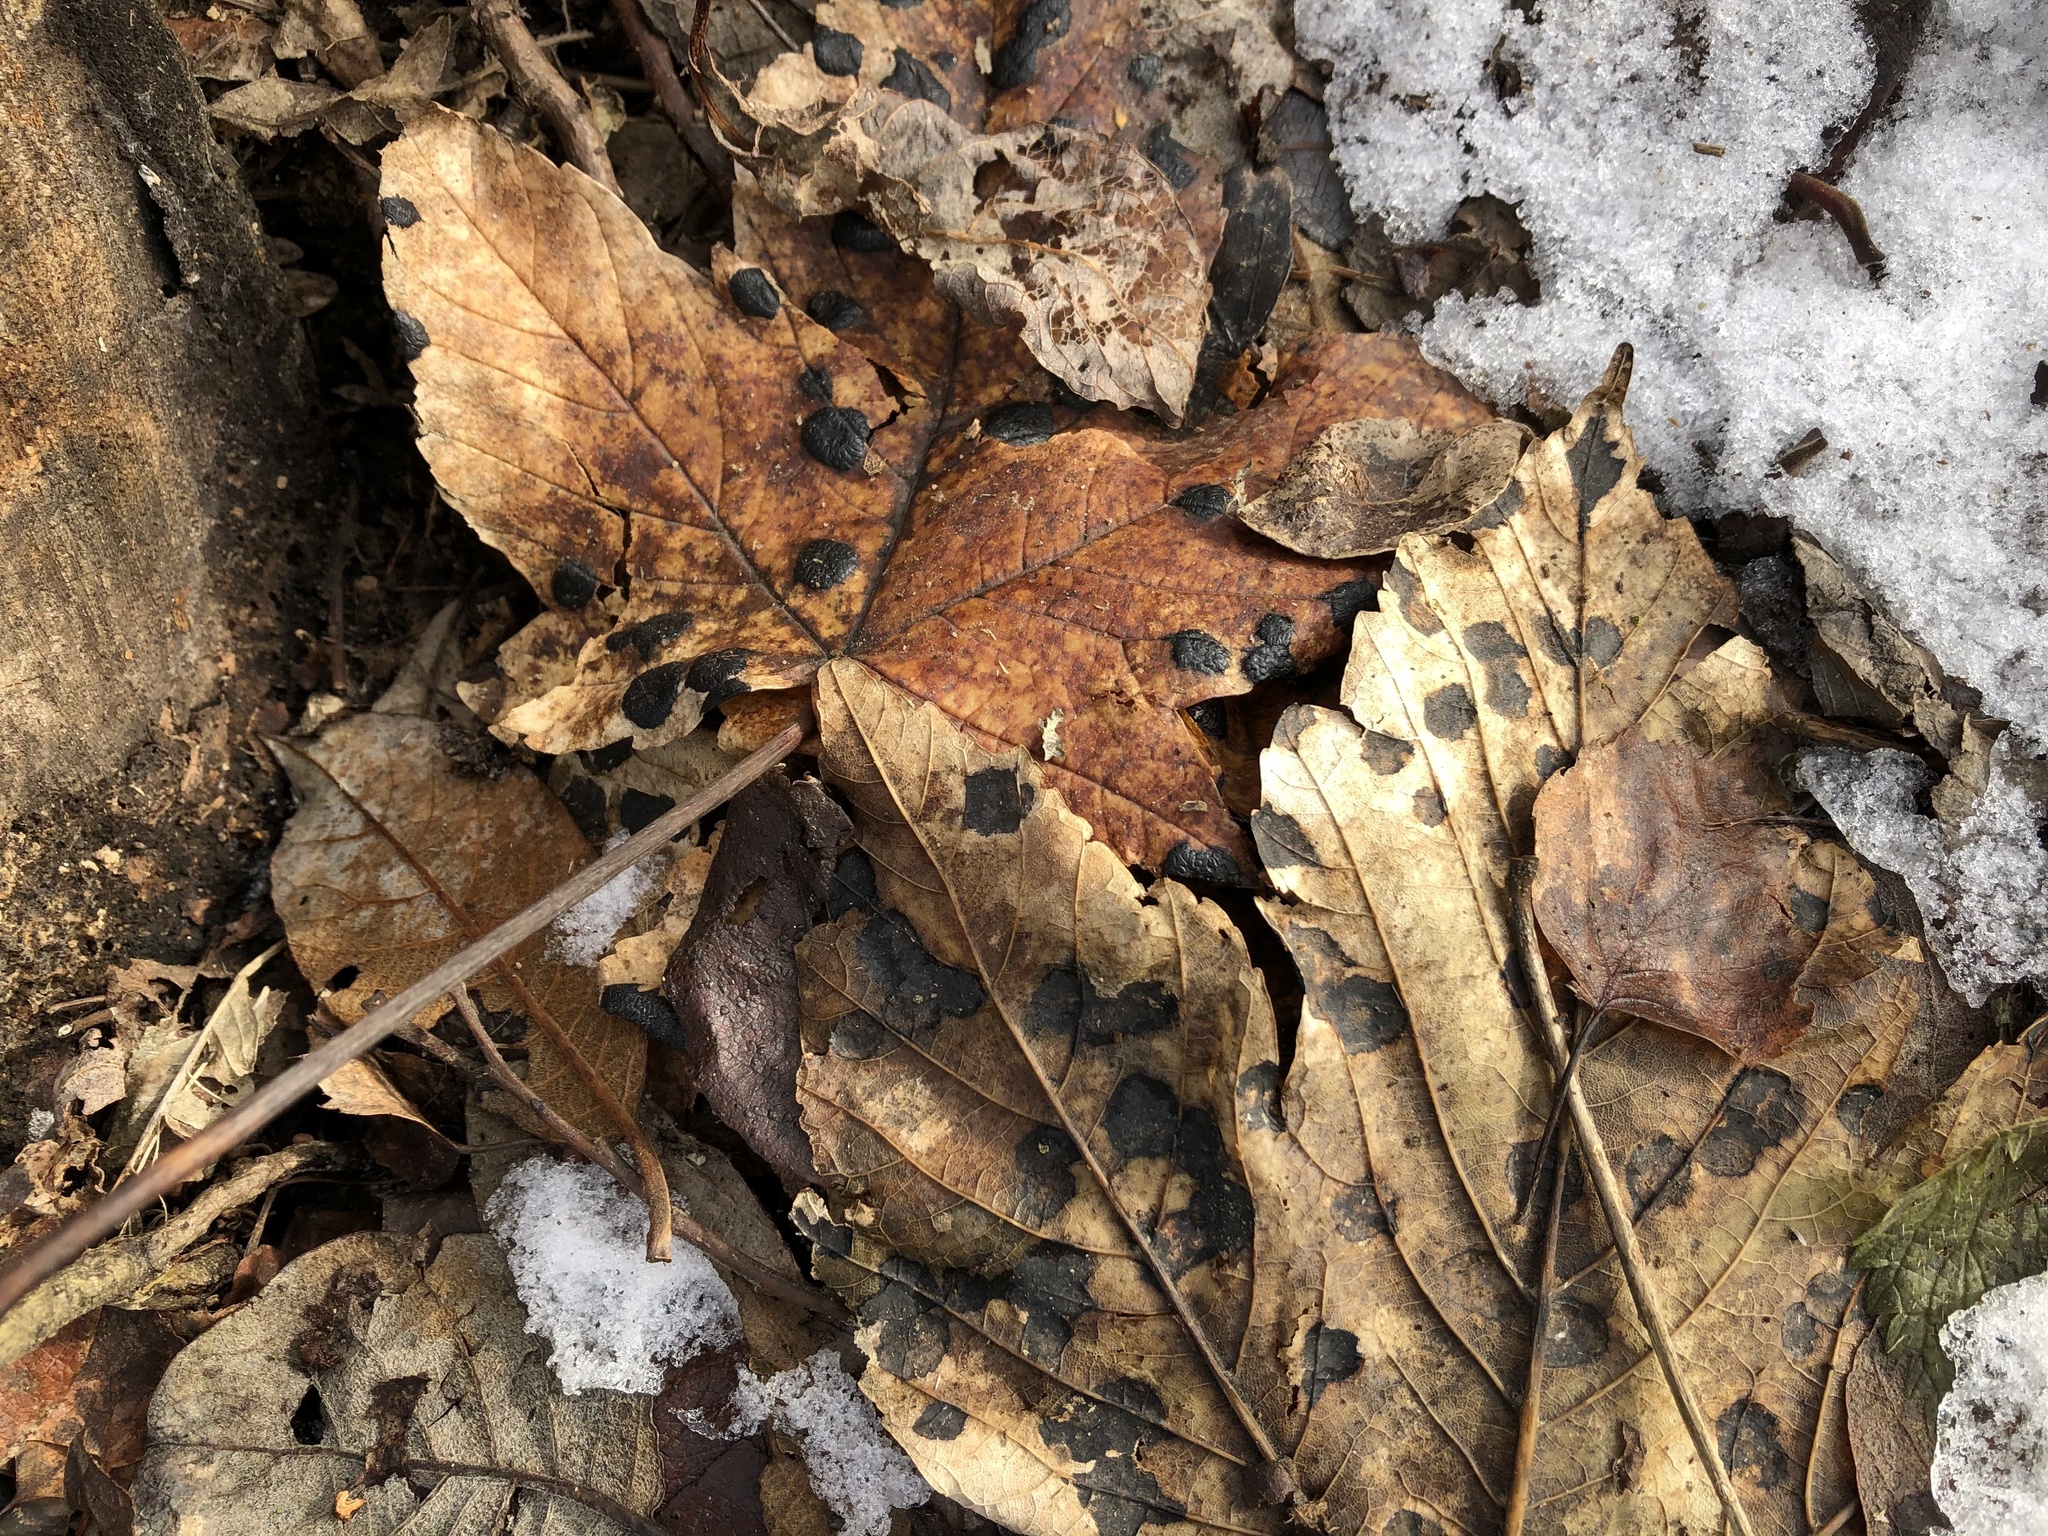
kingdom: Fungi
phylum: Ascomycota
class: Leotiomycetes
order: Rhytismatales
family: Rhytismataceae
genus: Rhytisma
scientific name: Rhytisma acerinum
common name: European tar spot
